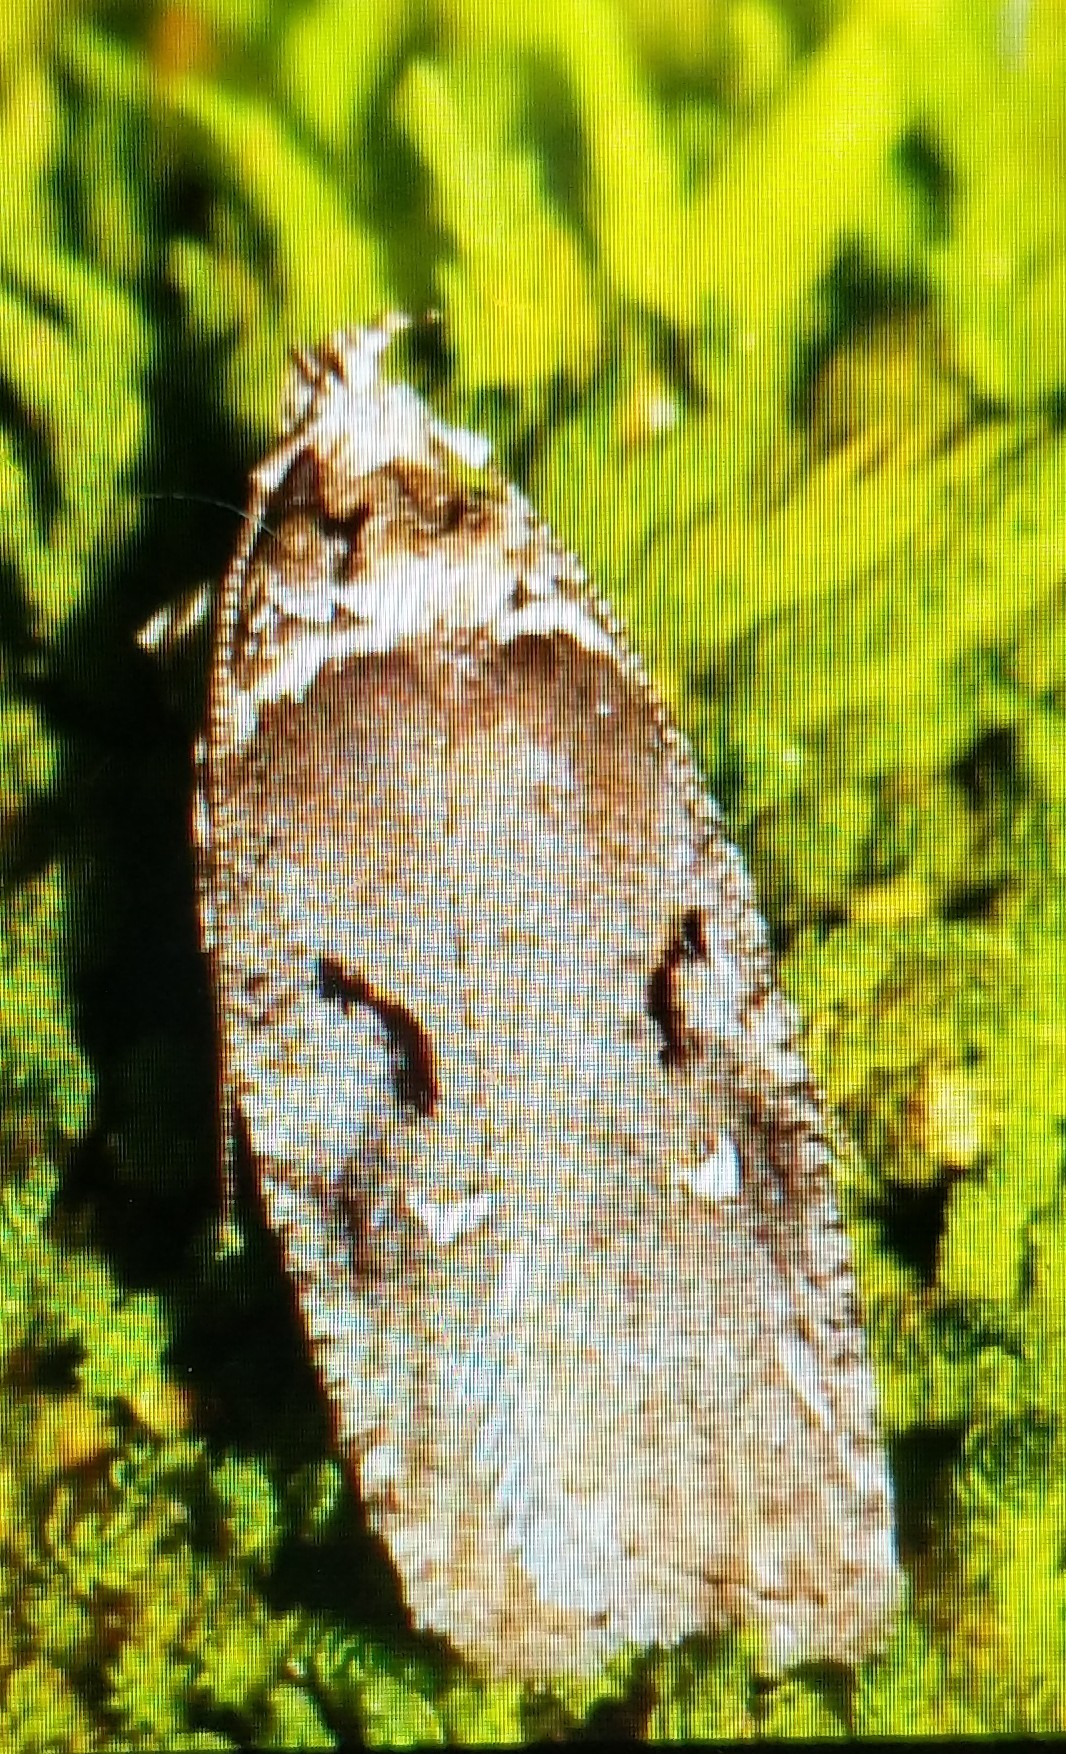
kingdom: Animalia
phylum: Arthropoda
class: Insecta
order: Lepidoptera
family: Depressariidae
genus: Agonopterix
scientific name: Agonopterix curvilineella
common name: Curved-line agonopterix moth
